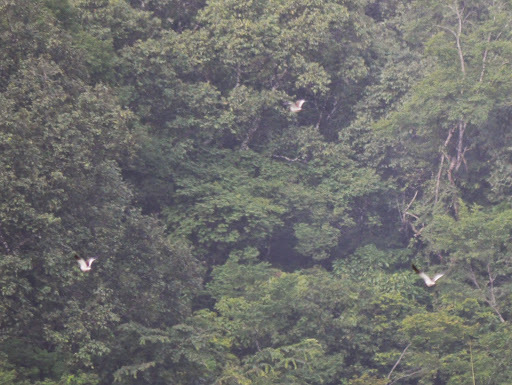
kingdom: Animalia
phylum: Chordata
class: Aves
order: Charadriiformes
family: Charadriidae
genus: Vanellus
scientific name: Vanellus lugubris
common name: Senegal lapwing
